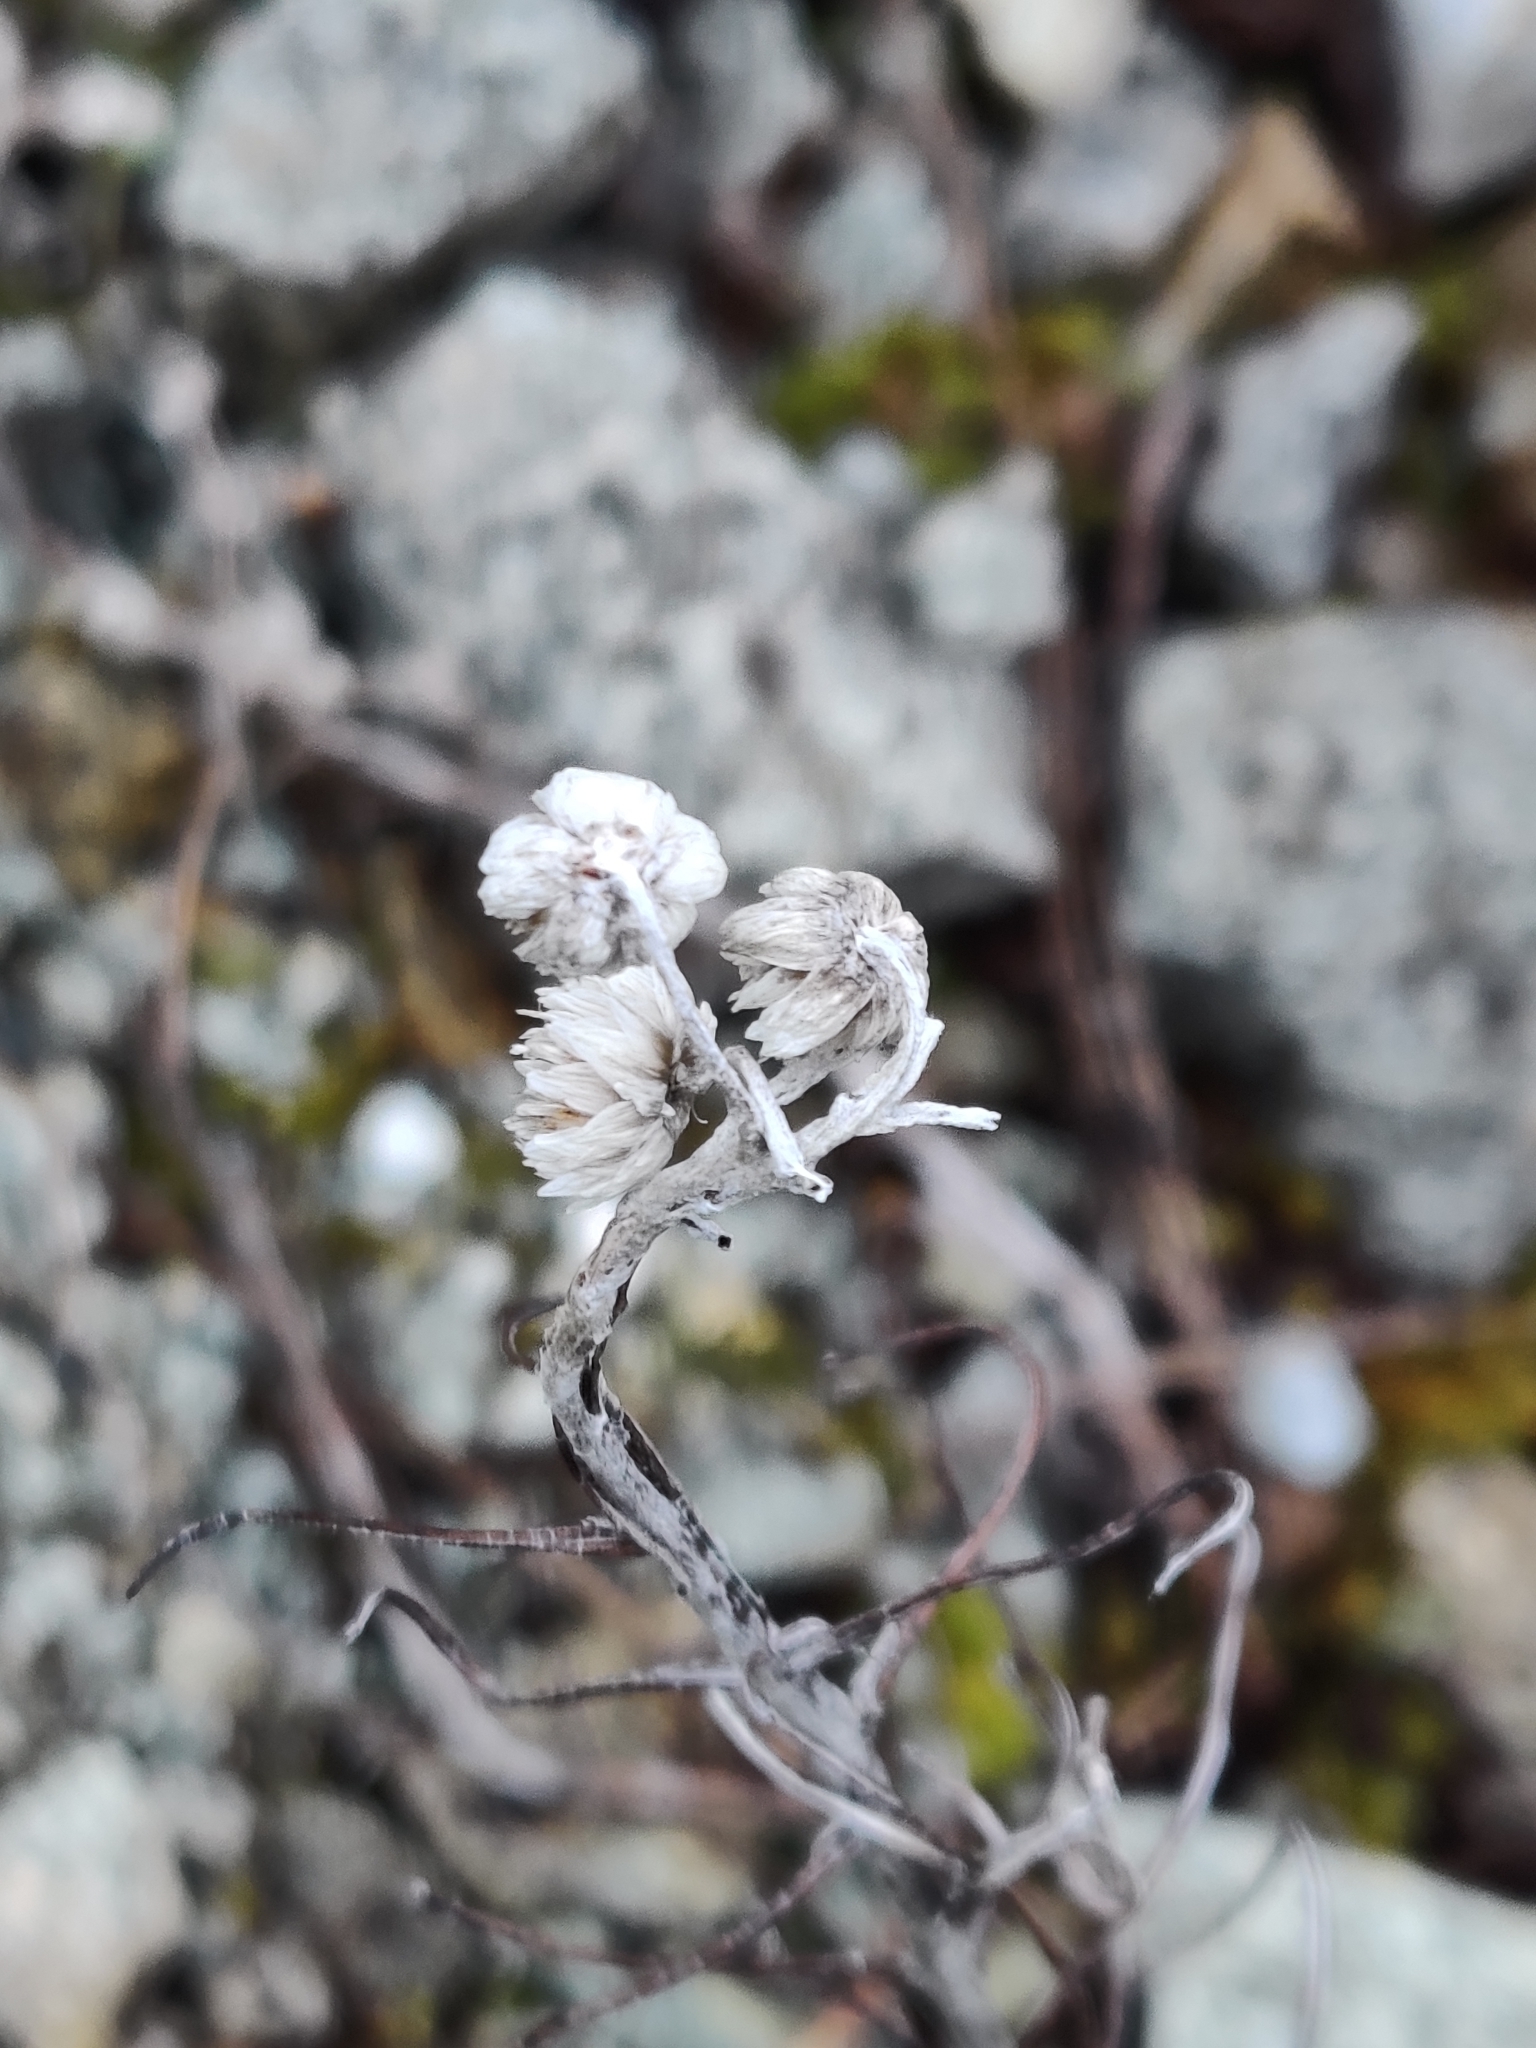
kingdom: Plantae
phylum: Tracheophyta
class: Magnoliopsida
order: Asterales
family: Asteraceae
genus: Anaphalis
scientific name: Anaphalis margaritacea
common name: Pearly everlasting
